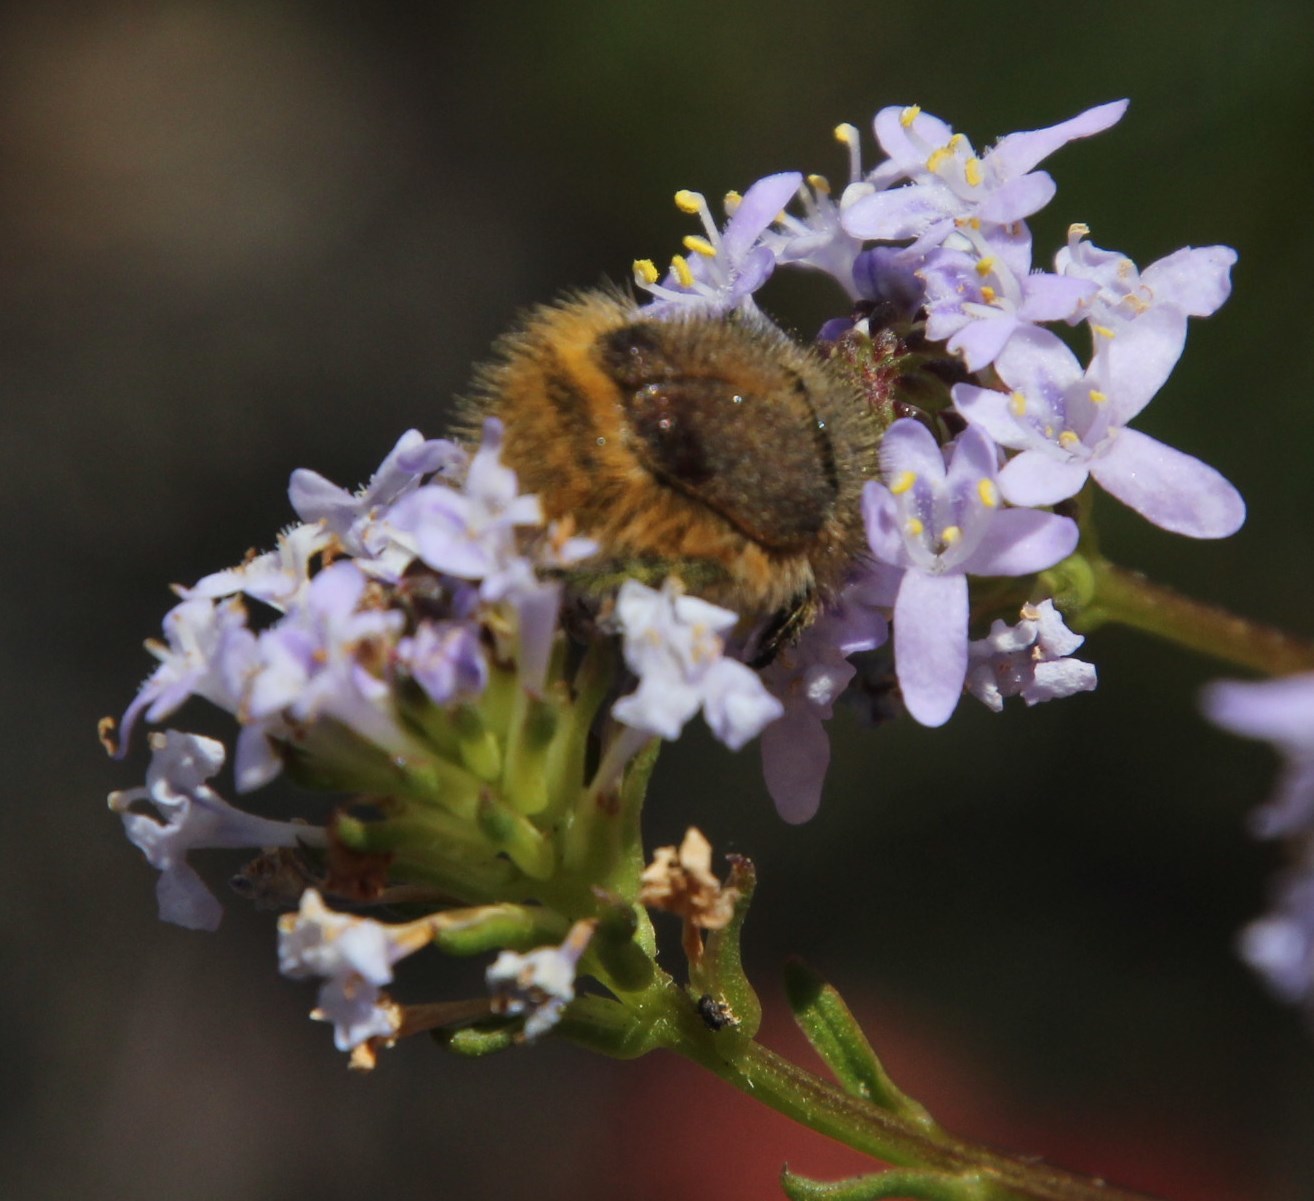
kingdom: Animalia
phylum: Arthropoda
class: Insecta
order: Coleoptera
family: Scarabaeidae
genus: Peritrichia
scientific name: Peritrichia nitidipennis
